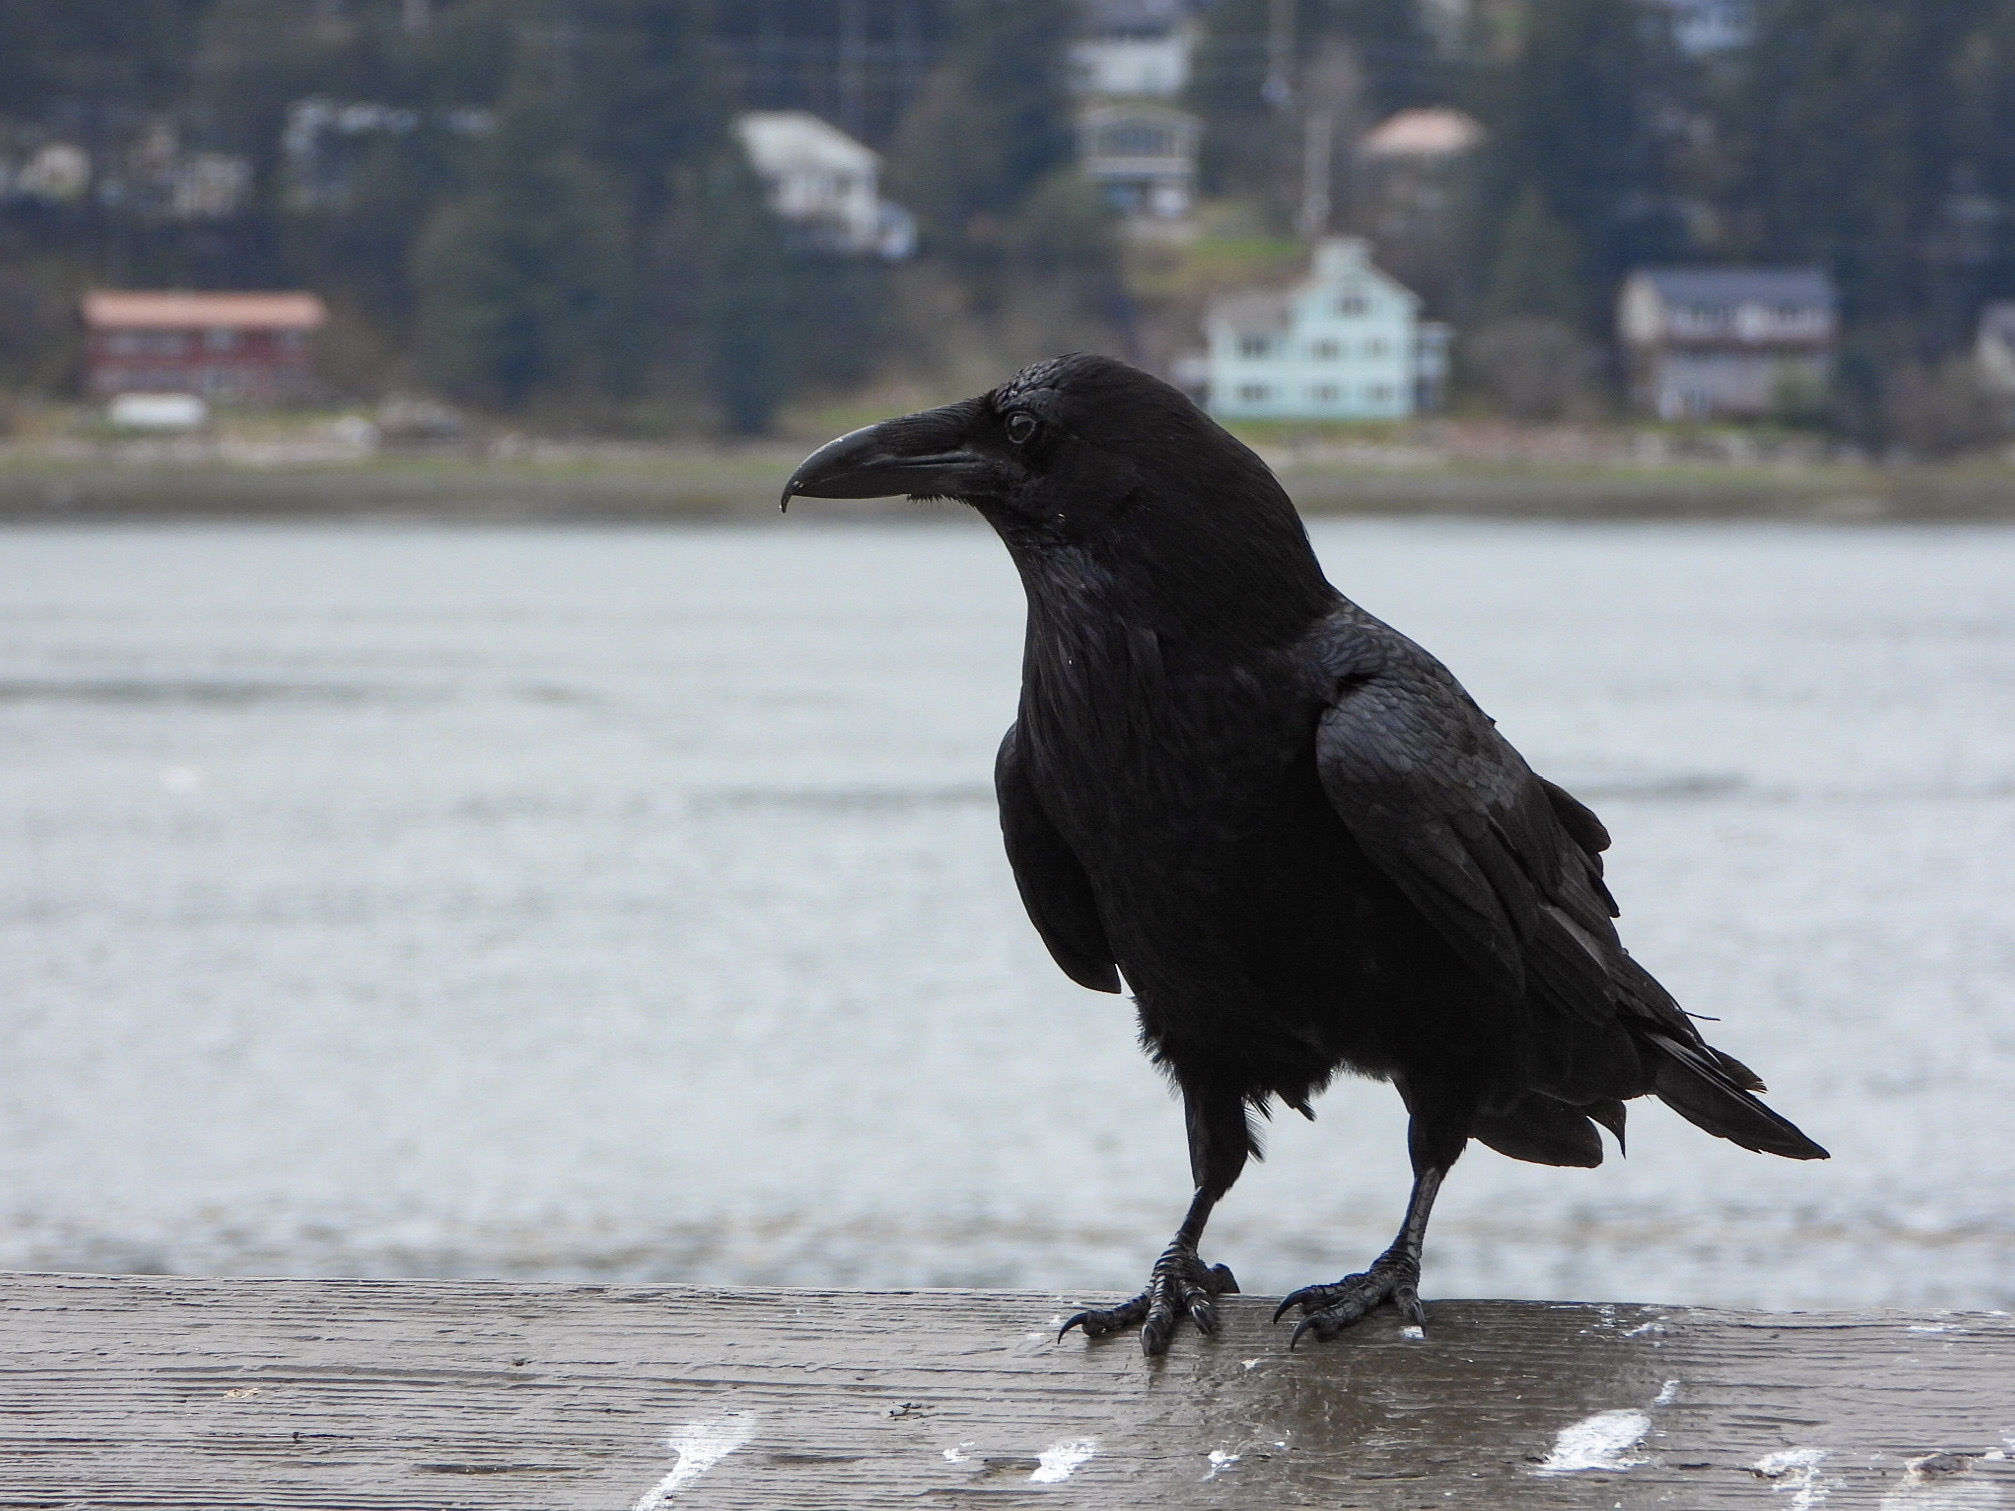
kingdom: Animalia
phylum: Chordata
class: Aves
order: Passeriformes
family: Corvidae
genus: Corvus
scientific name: Corvus corax
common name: Common raven
